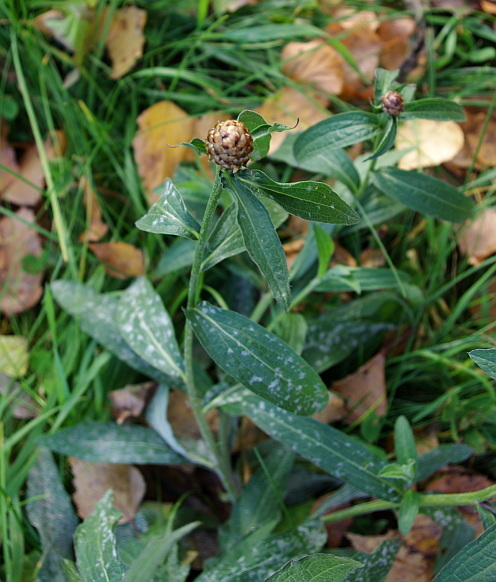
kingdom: Plantae
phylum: Tracheophyta
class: Magnoliopsida
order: Asterales
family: Asteraceae
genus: Centaurea
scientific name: Centaurea jacea
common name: Brown knapweed
